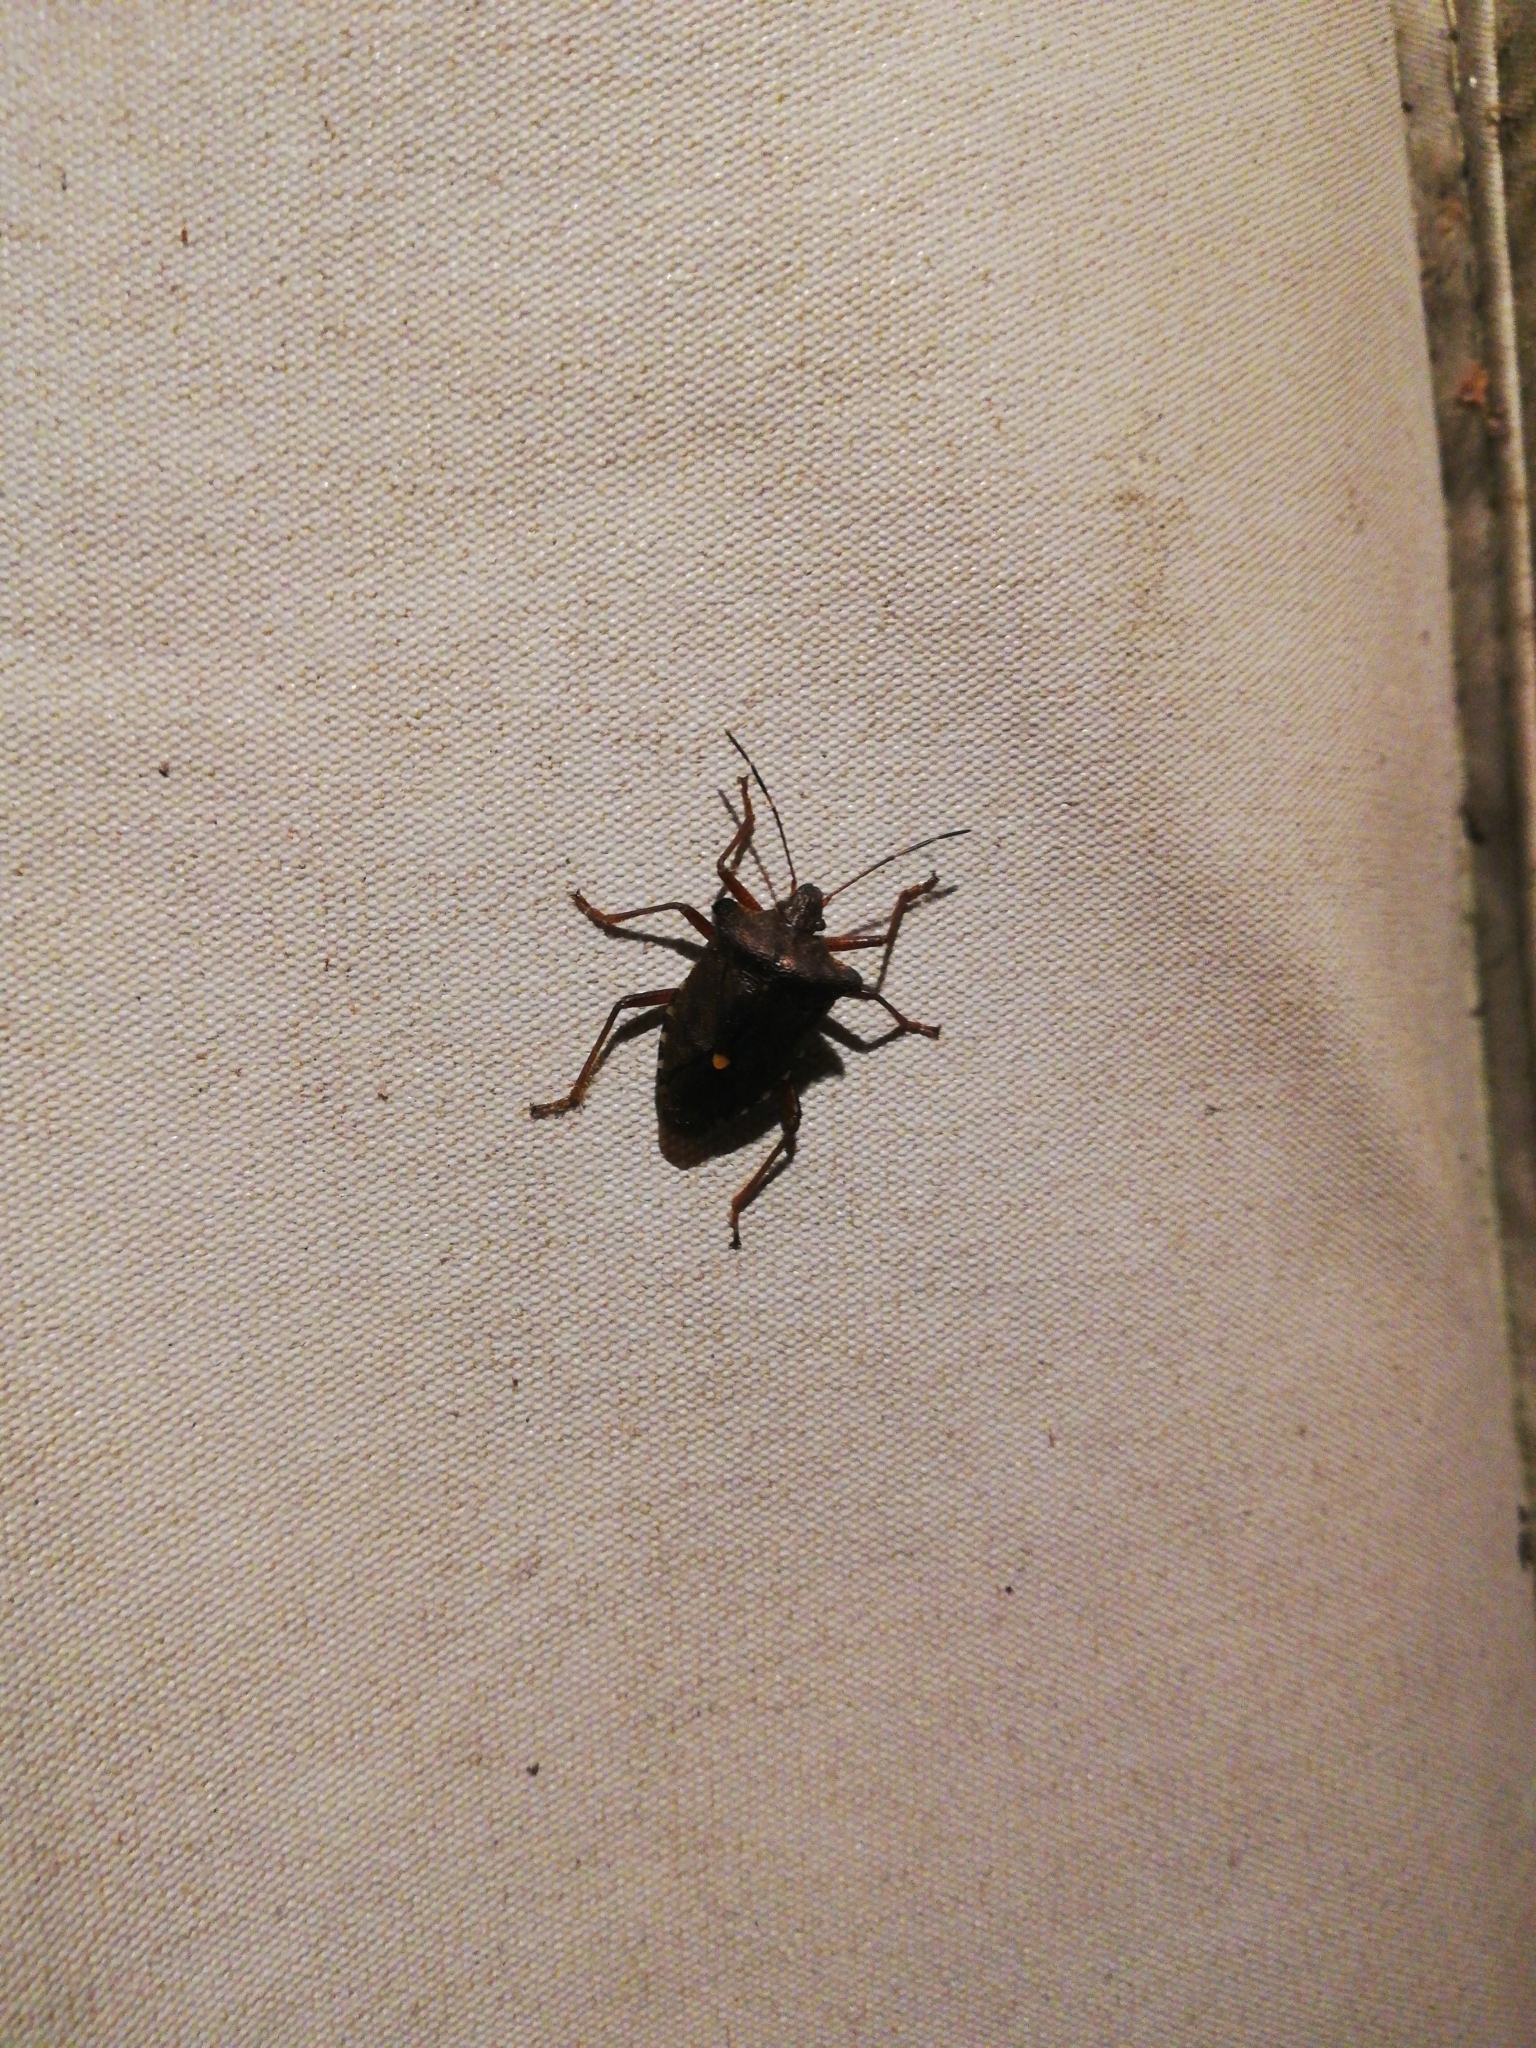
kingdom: Animalia
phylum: Arthropoda
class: Insecta
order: Hemiptera
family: Pentatomidae
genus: Pentatoma
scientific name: Pentatoma rufipes
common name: Forest bug
